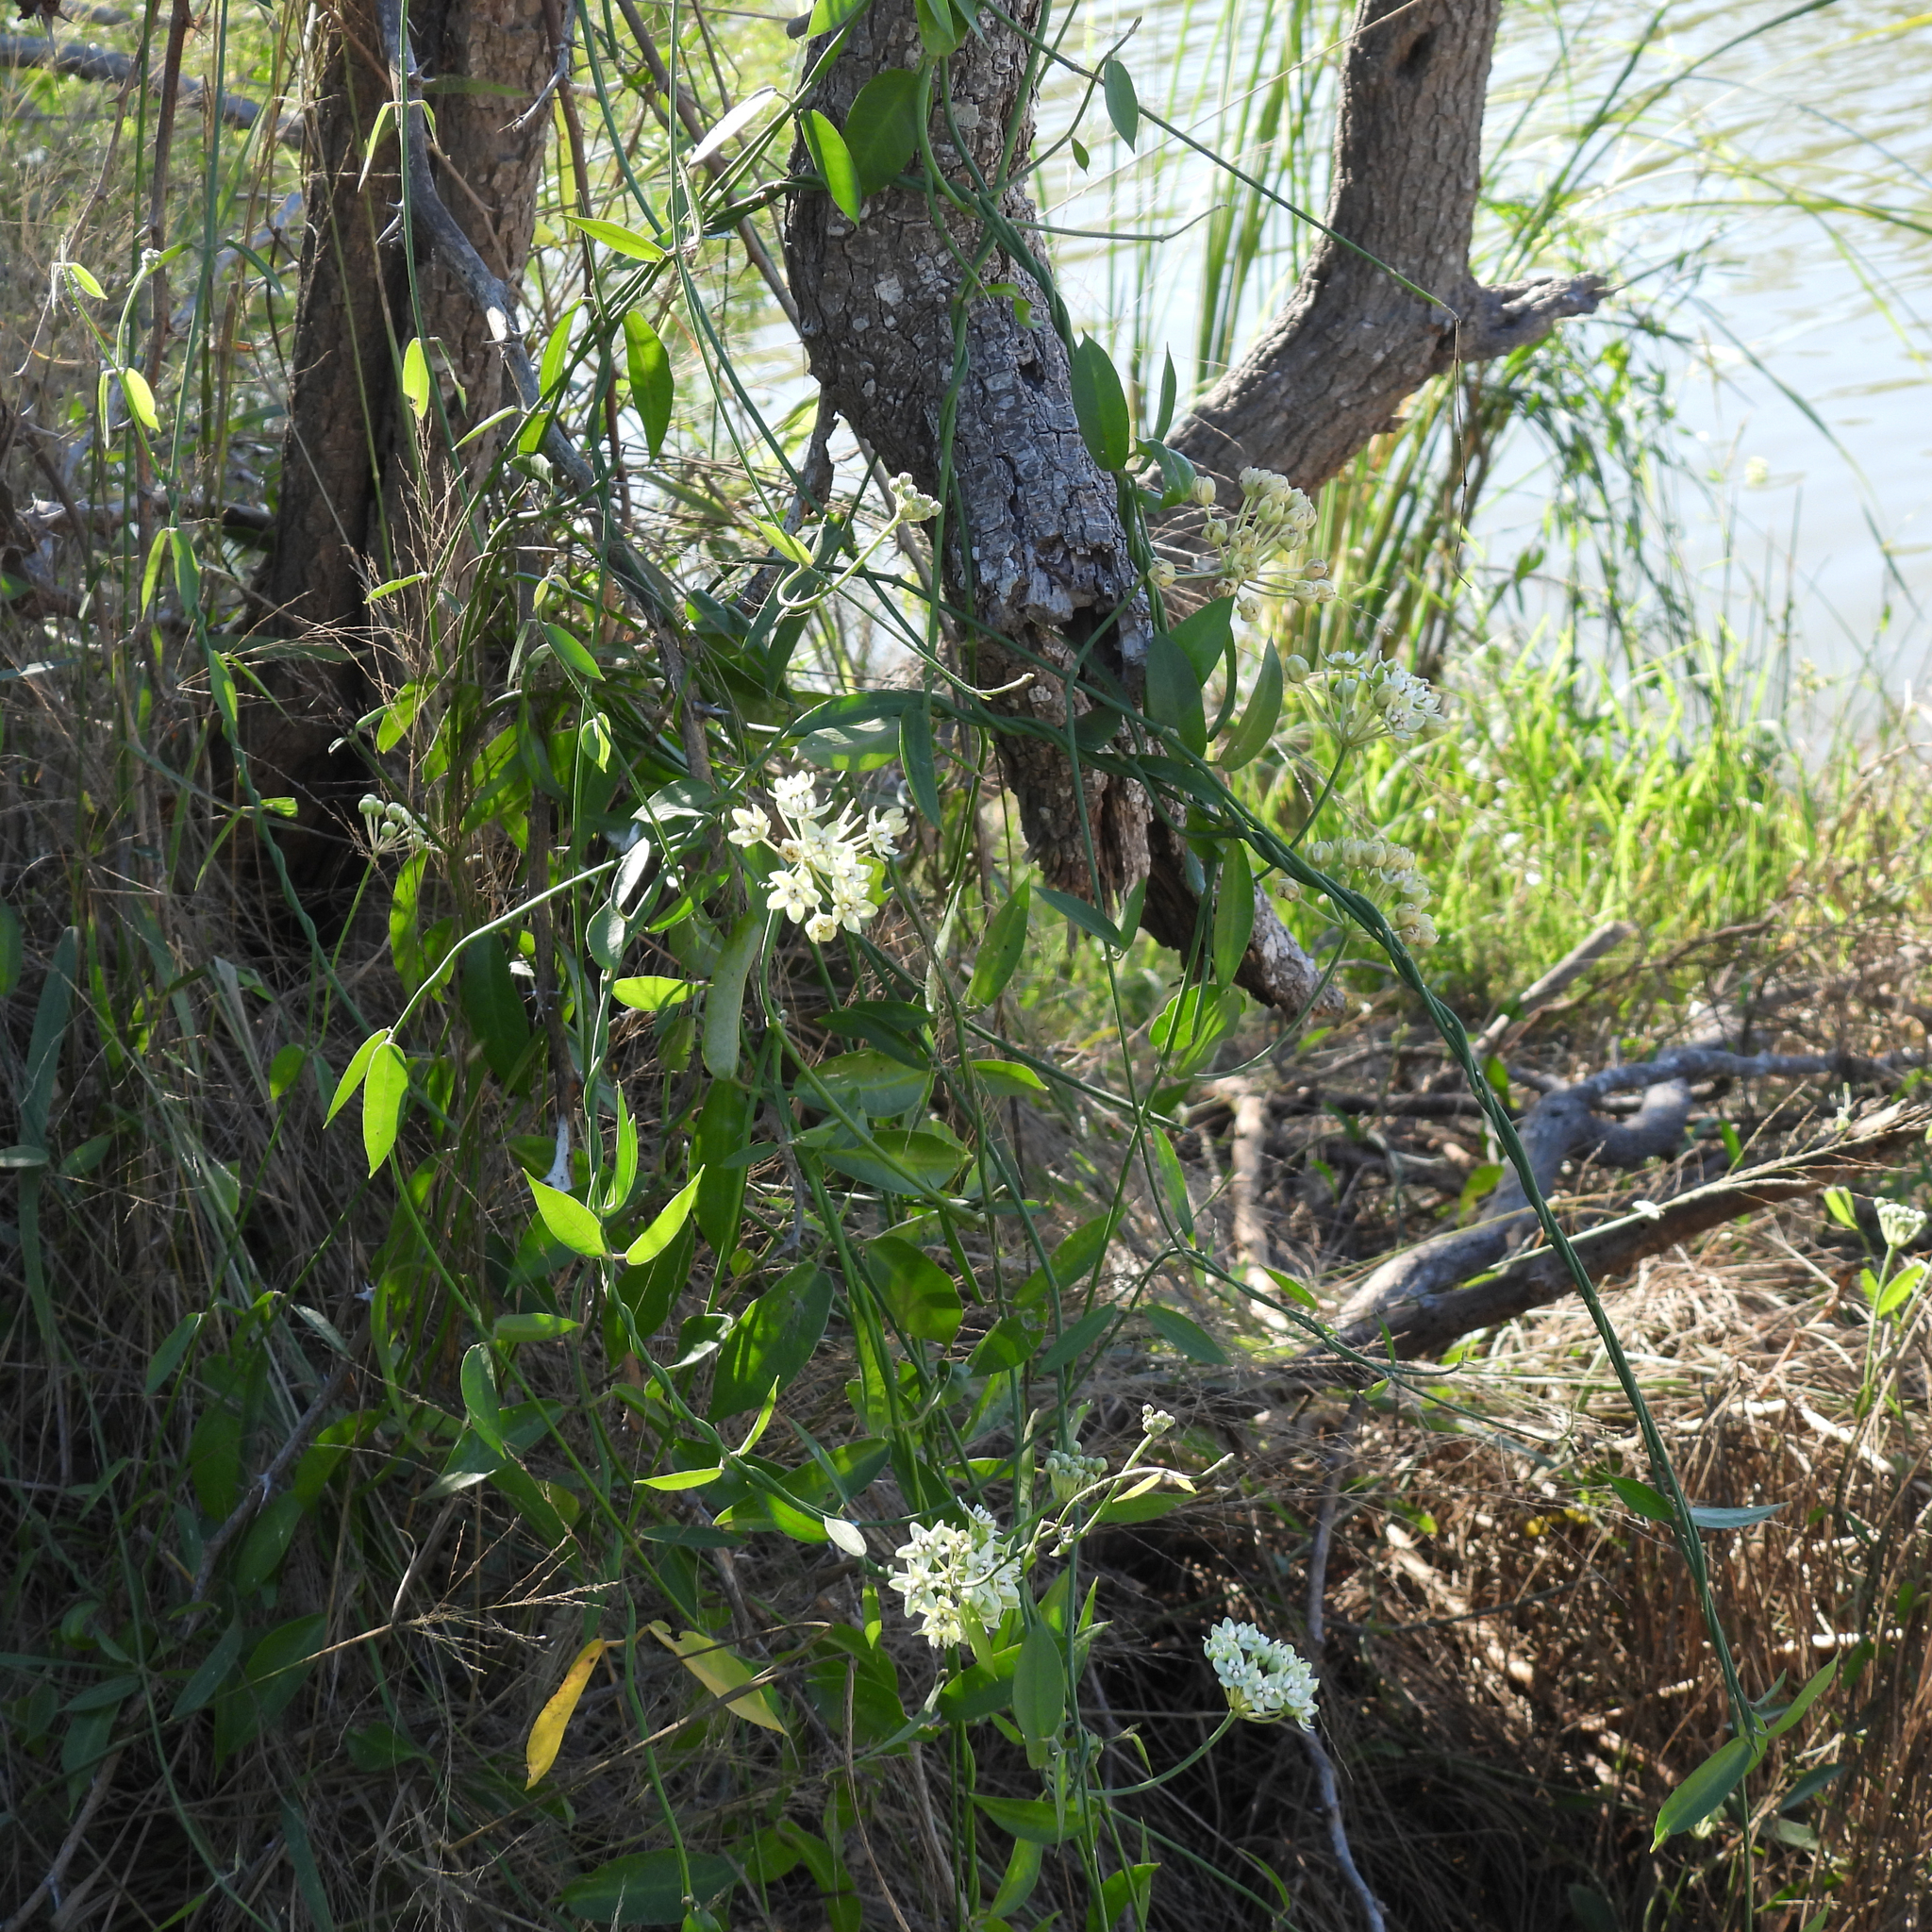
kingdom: Plantae
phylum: Tracheophyta
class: Magnoliopsida
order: Gentianales
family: Apocynaceae
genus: Funastrum
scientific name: Funastrum clausum
